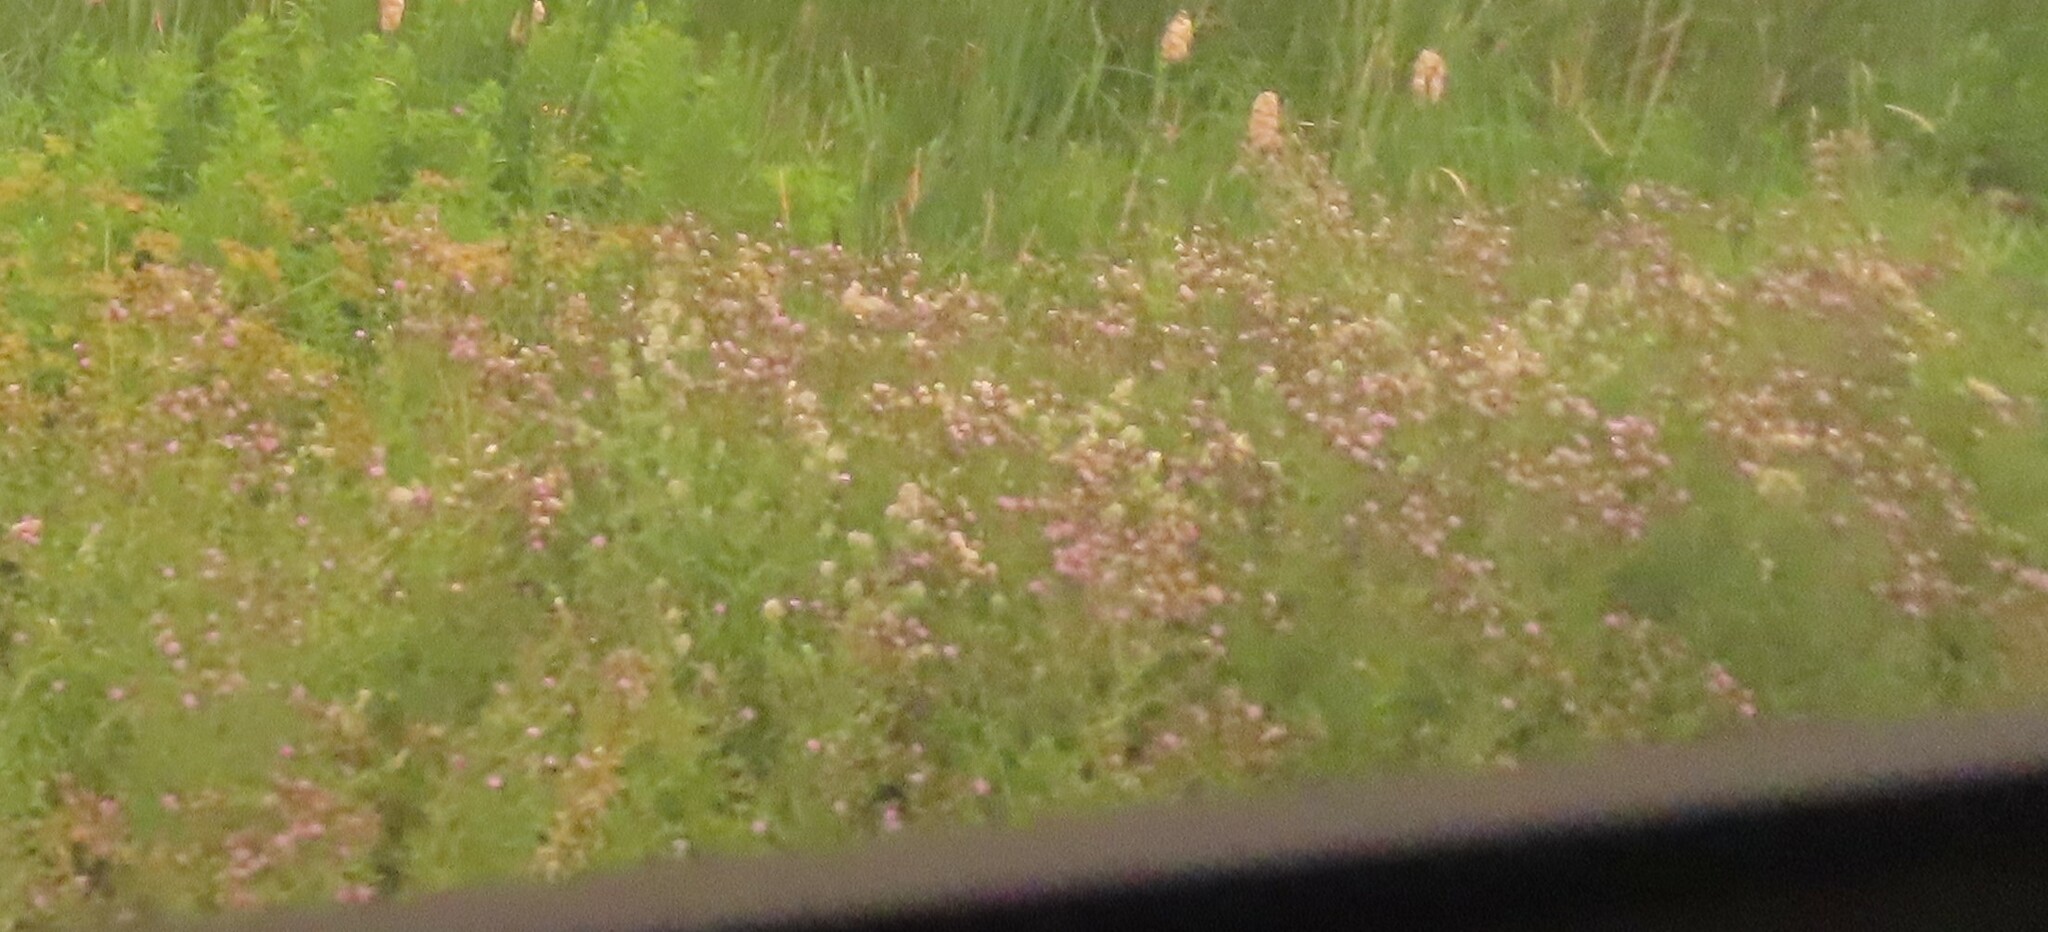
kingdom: Plantae
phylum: Tracheophyta
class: Magnoliopsida
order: Asterales
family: Asteraceae
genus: Cirsium
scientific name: Cirsium arvense
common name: Creeping thistle
